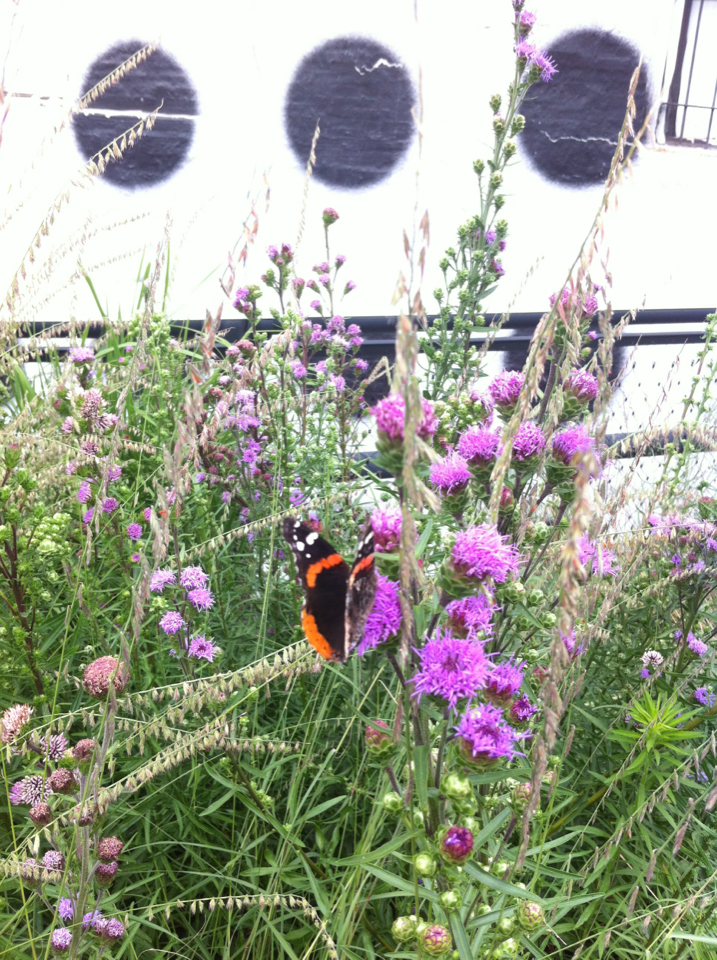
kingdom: Animalia
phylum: Arthropoda
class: Insecta
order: Lepidoptera
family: Nymphalidae
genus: Vanessa
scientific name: Vanessa atalanta
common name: Red admiral
